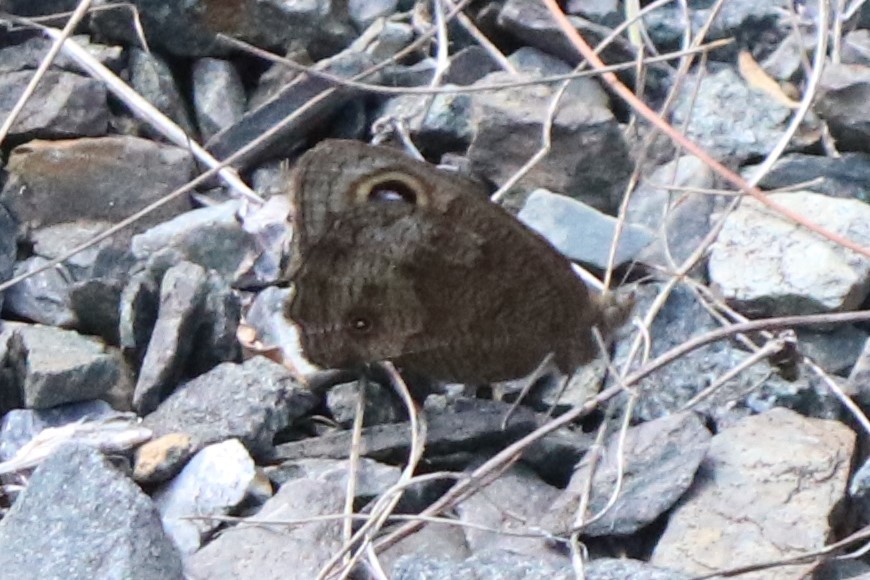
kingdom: Animalia
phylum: Arthropoda
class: Insecta
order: Lepidoptera
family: Nymphalidae
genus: Cercyonis
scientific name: Cercyonis pegala
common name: Common wood-nymph
